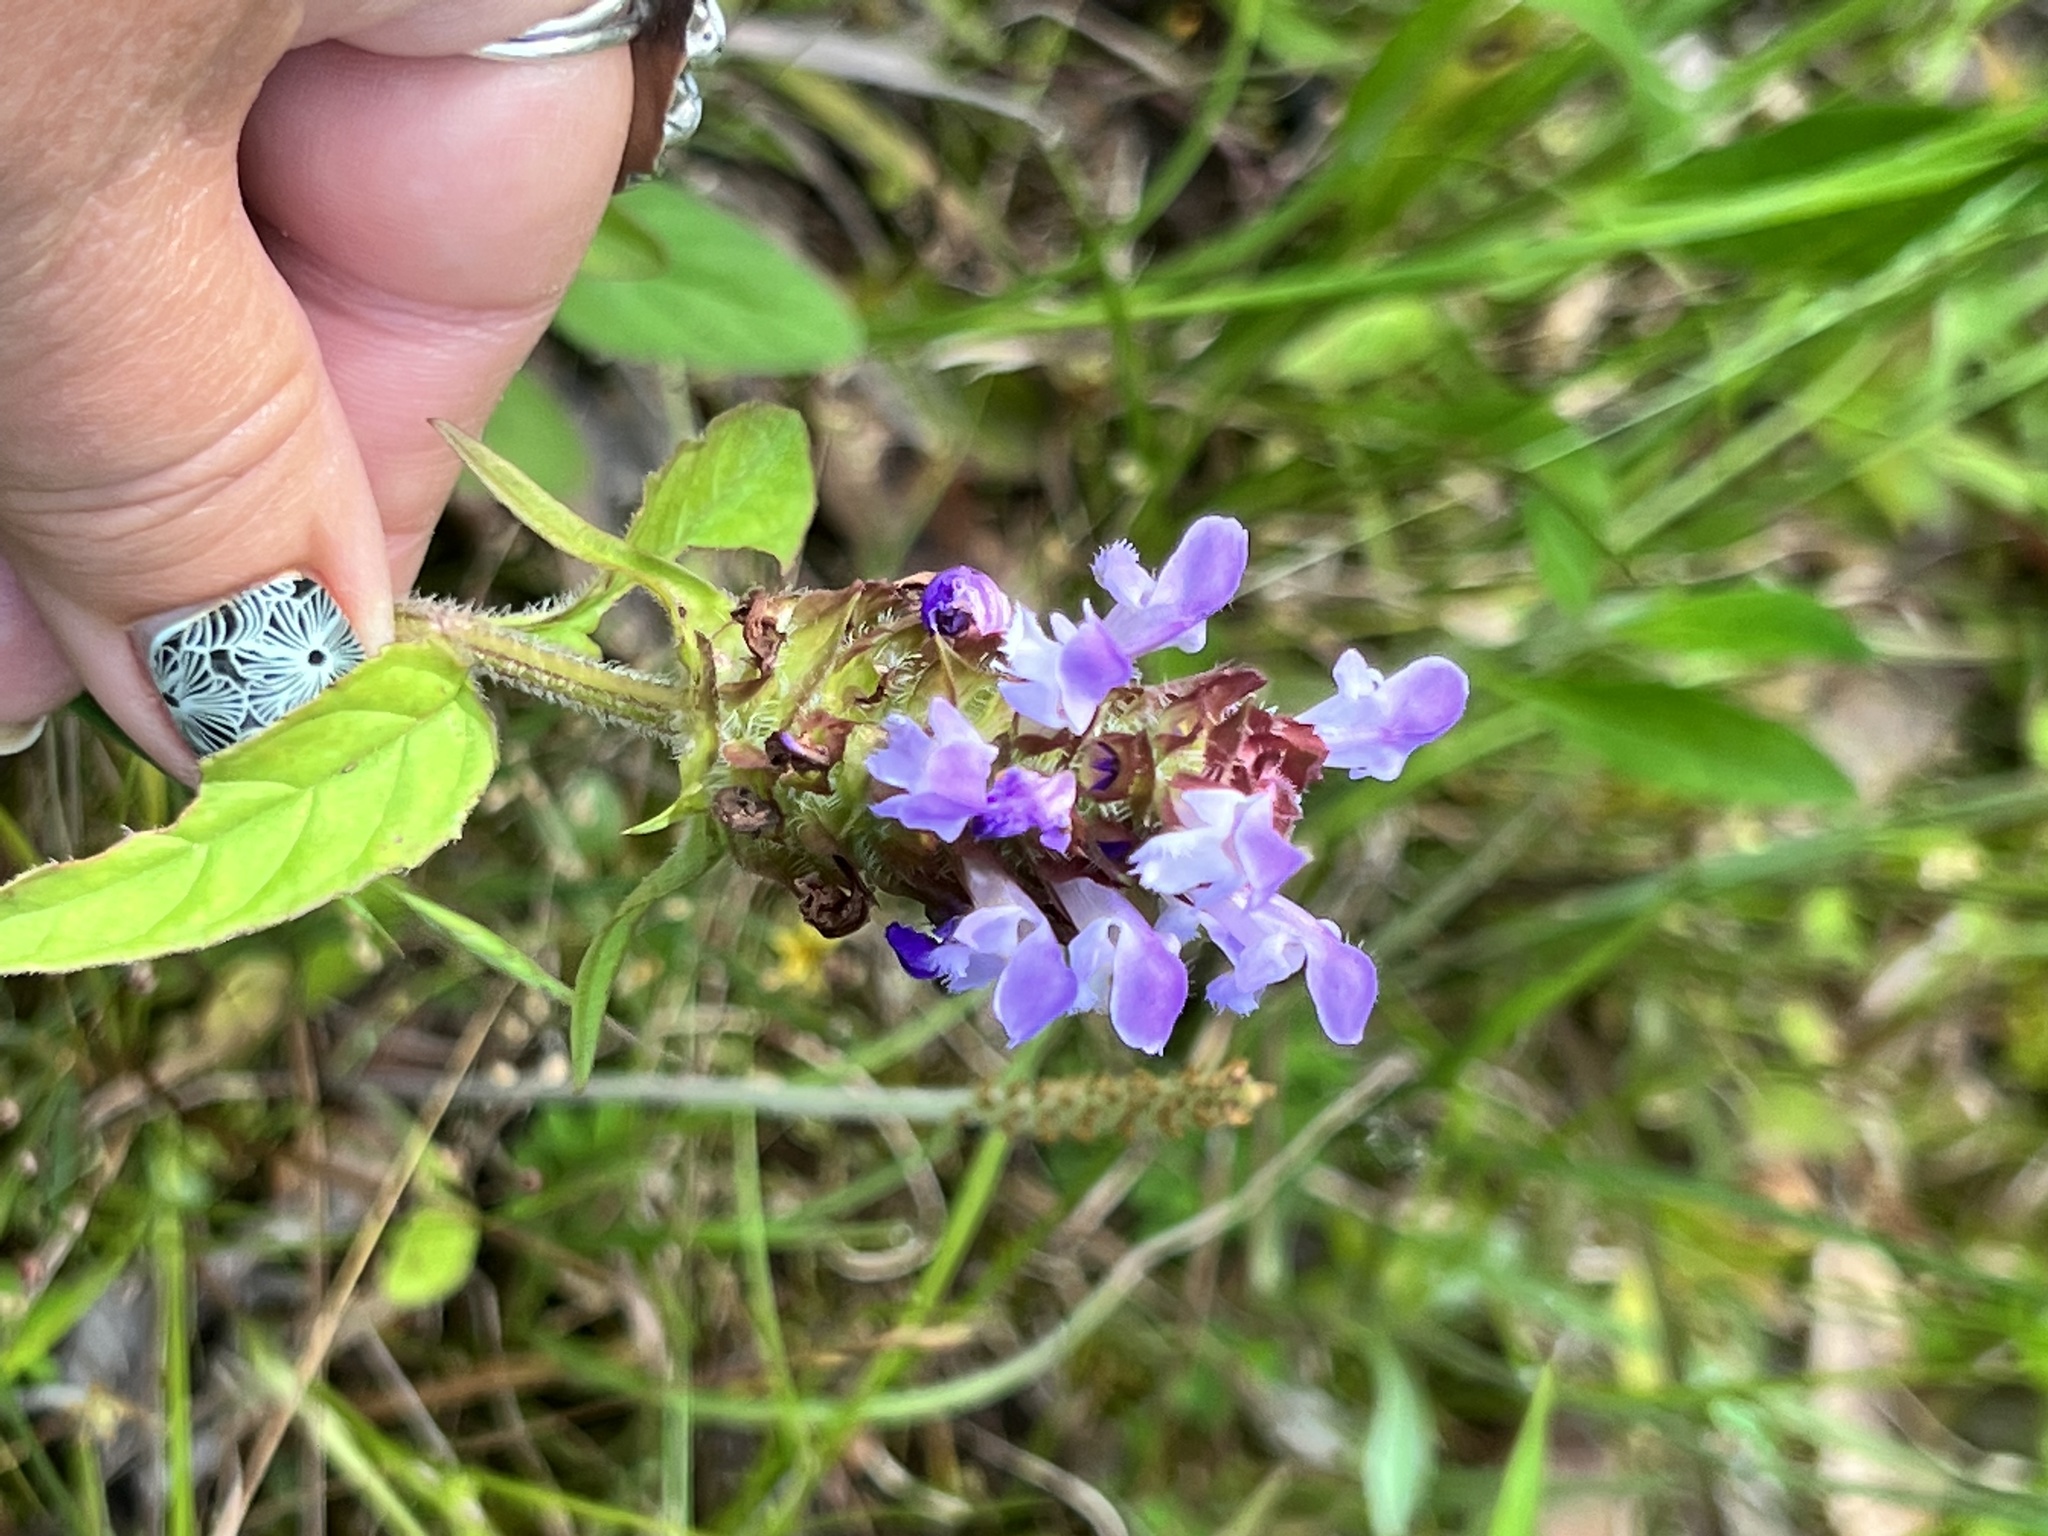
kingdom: Plantae
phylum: Tracheophyta
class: Magnoliopsida
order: Lamiales
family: Lamiaceae
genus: Prunella
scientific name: Prunella vulgaris
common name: Heal-all
